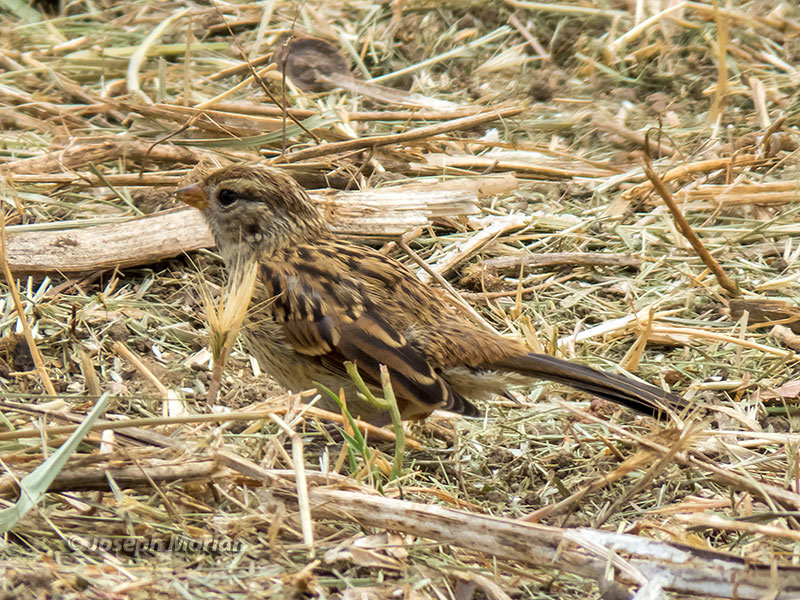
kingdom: Animalia
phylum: Chordata
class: Aves
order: Passeriformes
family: Passerellidae
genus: Zonotrichia
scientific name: Zonotrichia leucophrys
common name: White-crowned sparrow
